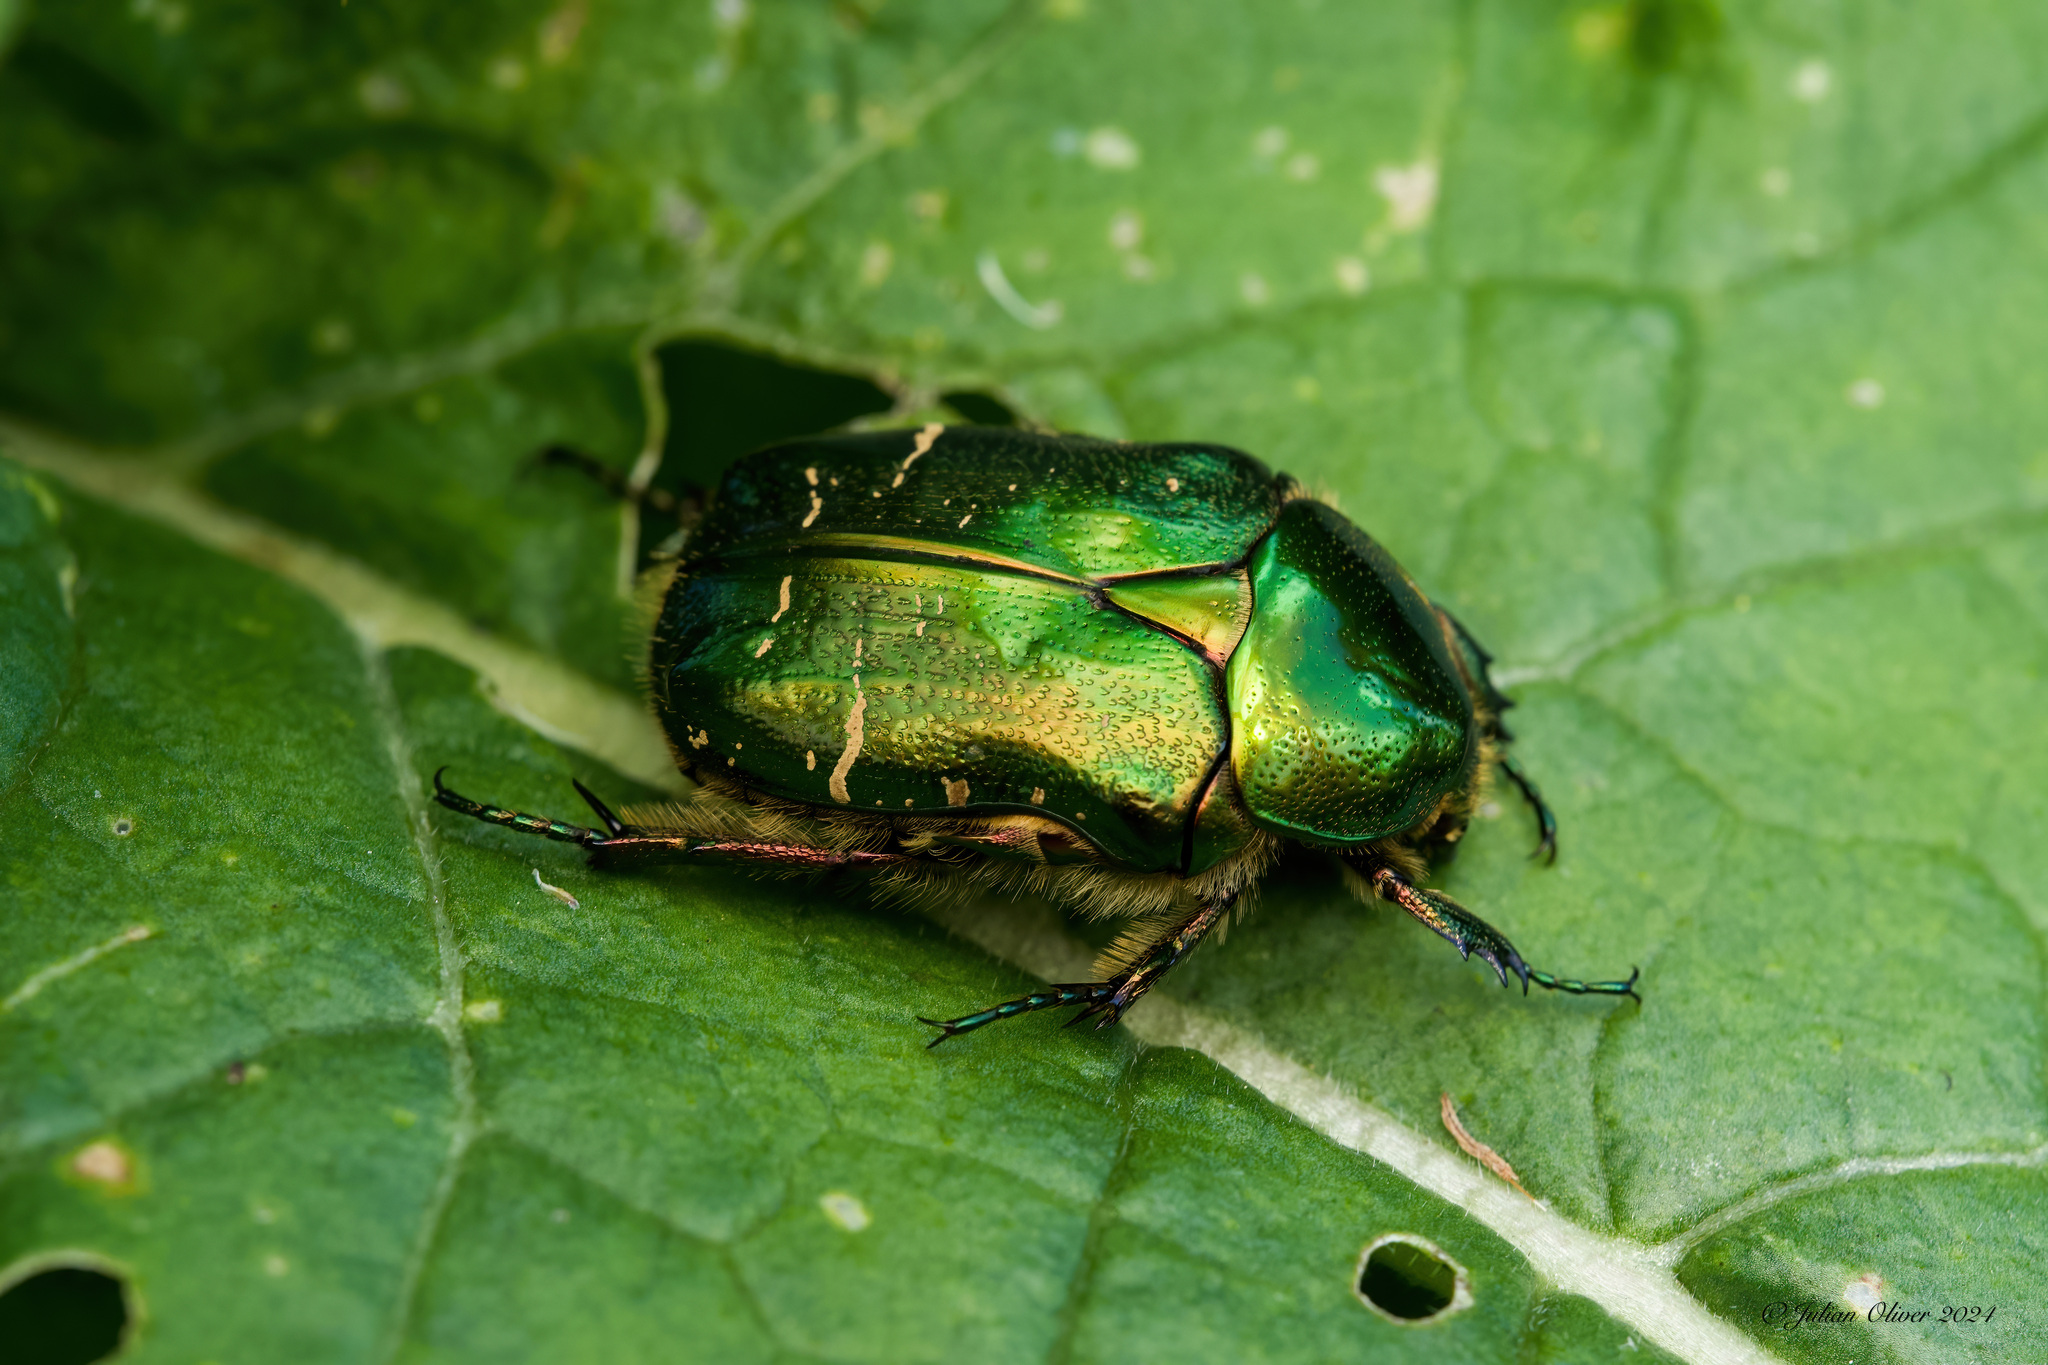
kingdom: Animalia
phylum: Arthropoda
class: Insecta
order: Coleoptera
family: Scarabaeidae
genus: Cetonia
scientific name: Cetonia aurata
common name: Rose chafer
